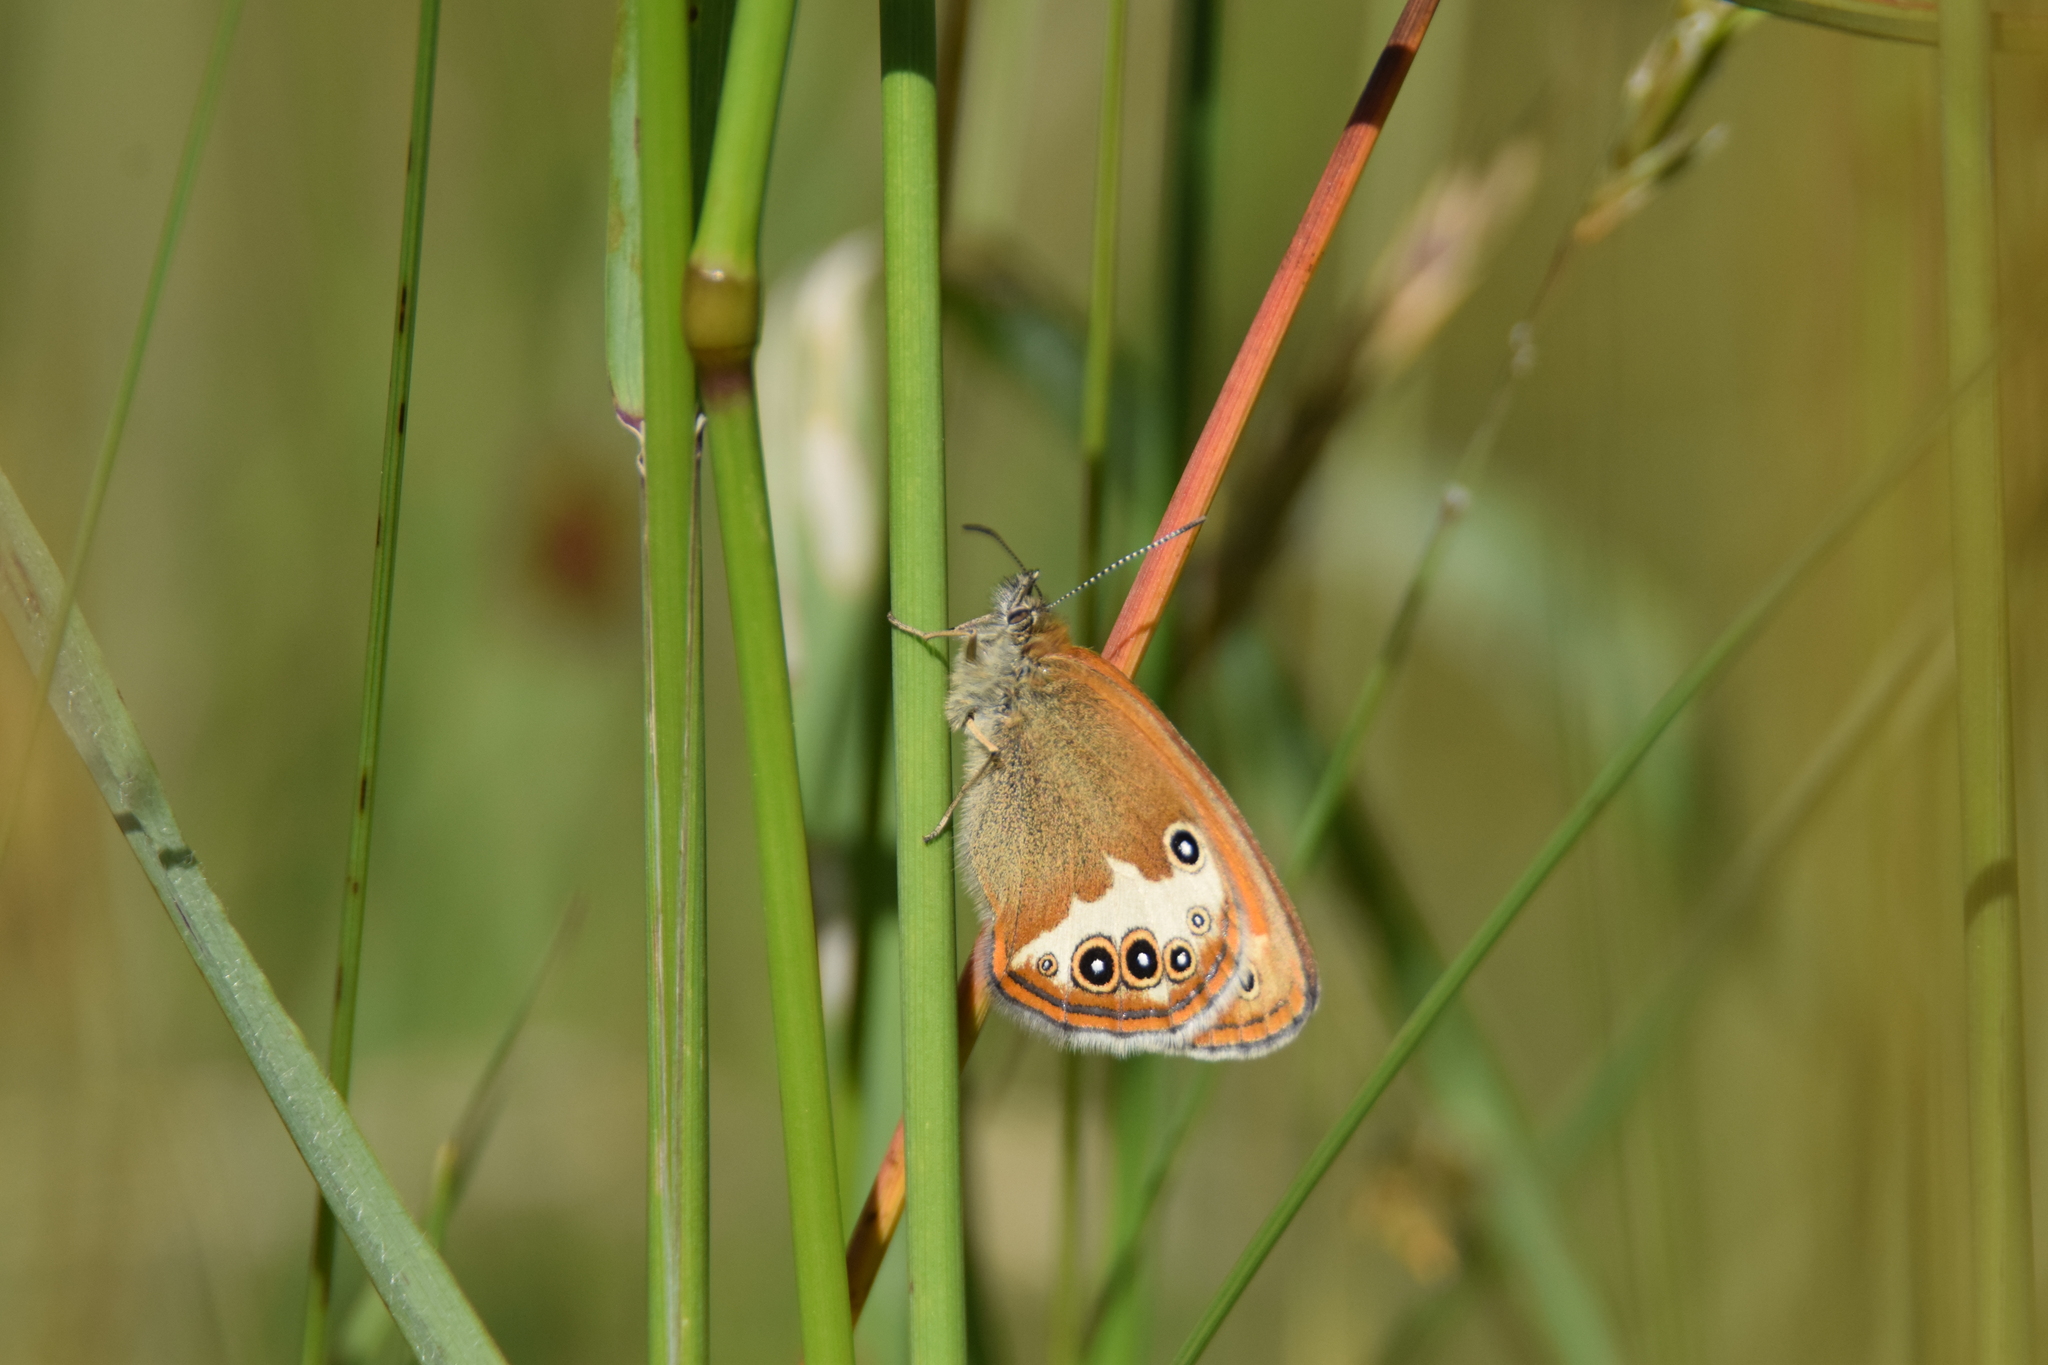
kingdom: Animalia
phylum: Arthropoda
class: Insecta
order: Lepidoptera
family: Nymphalidae
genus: Coenonympha
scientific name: Coenonympha arcania
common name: Pearly heath
